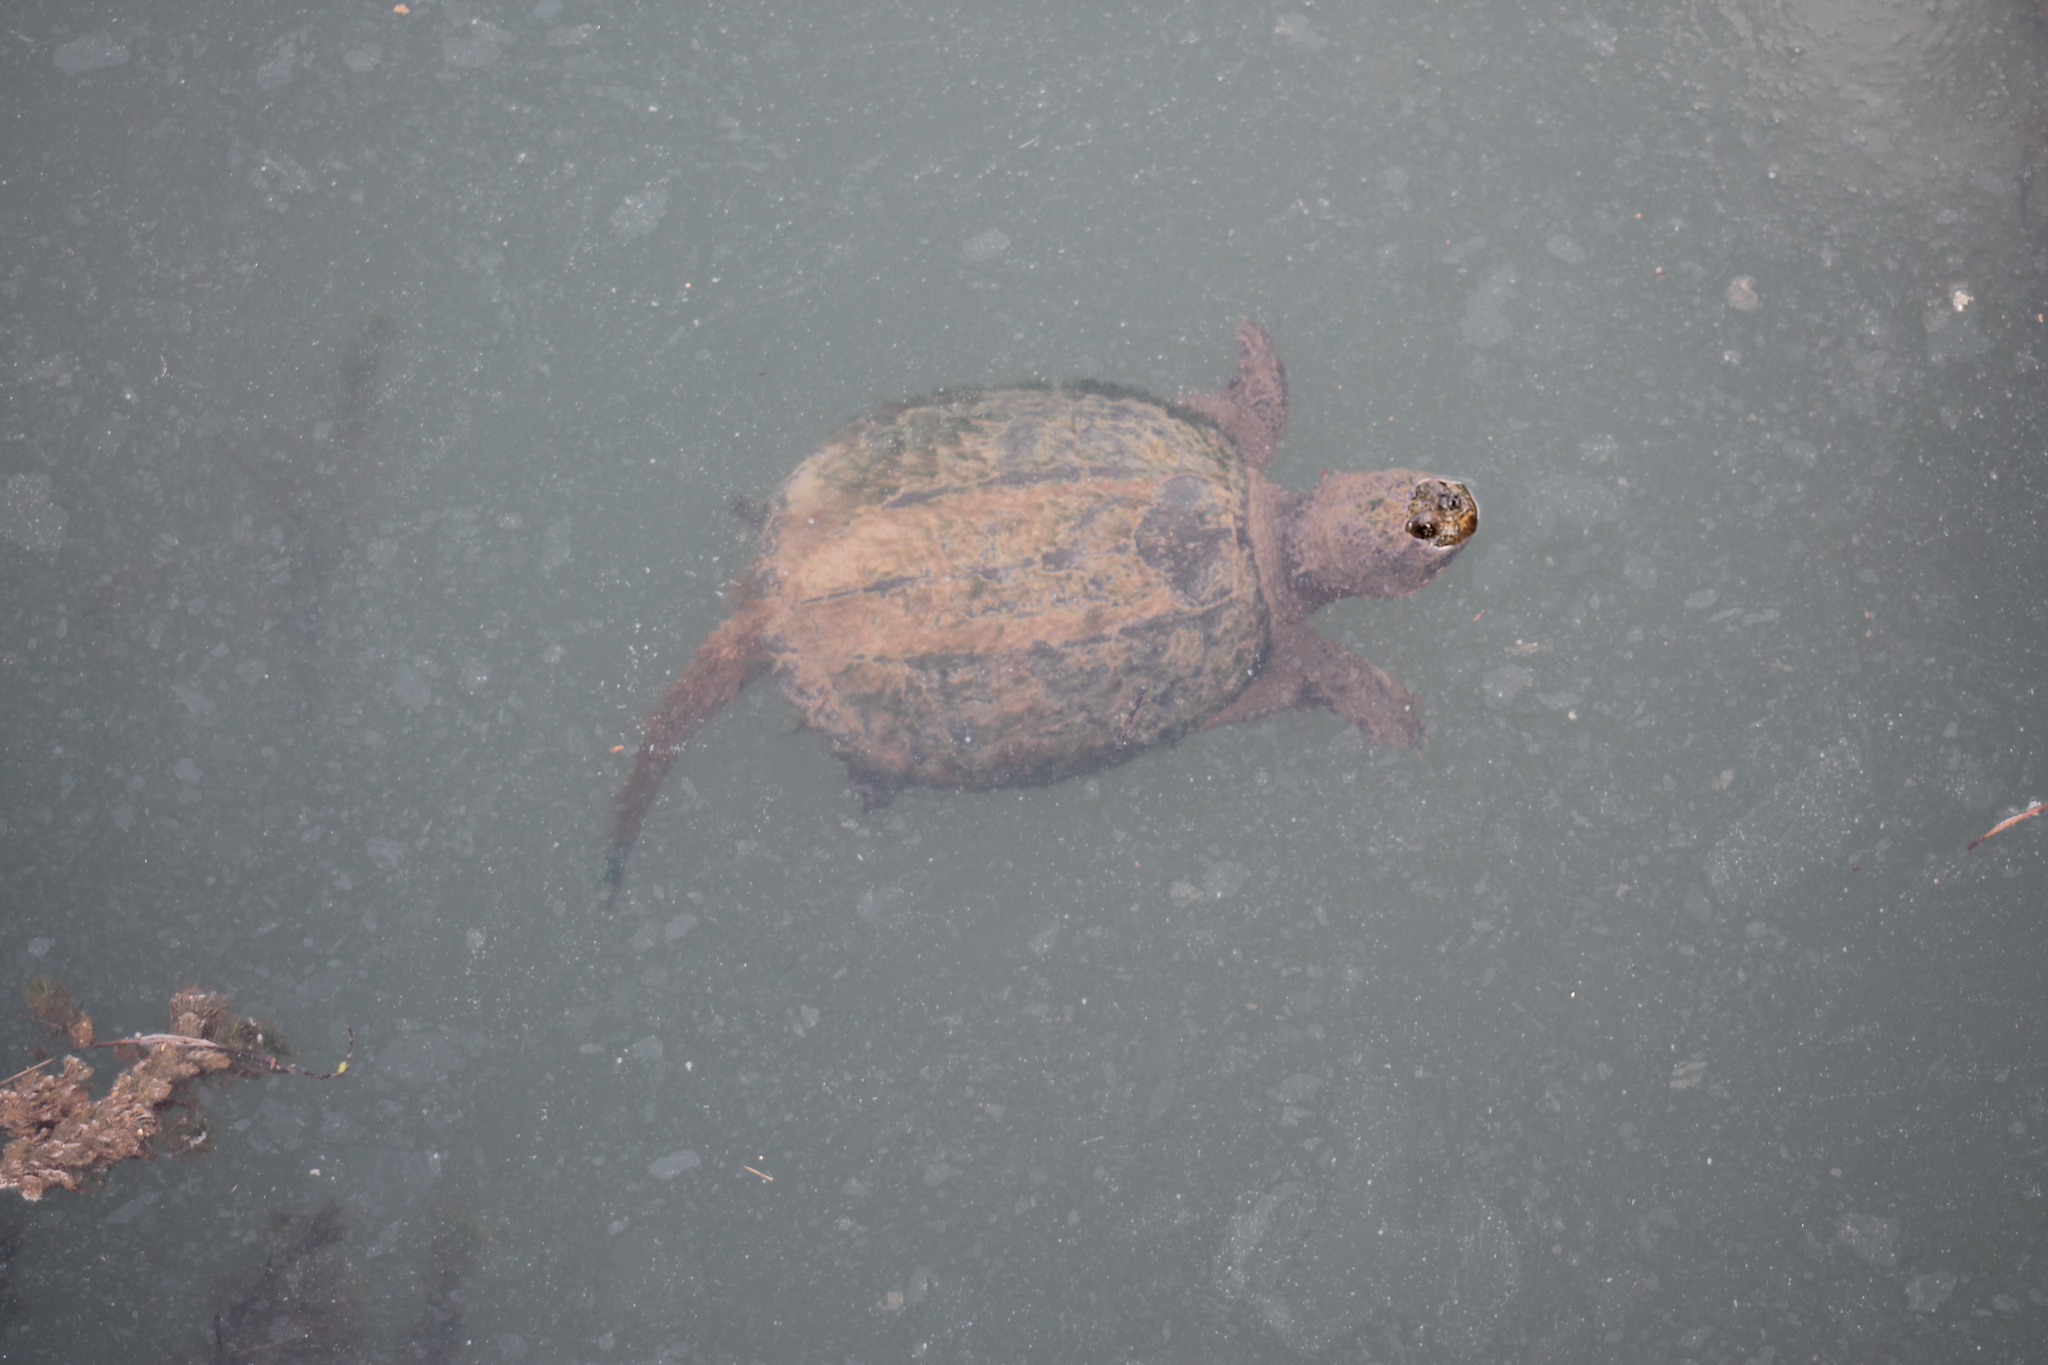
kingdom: Animalia
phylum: Chordata
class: Testudines
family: Chelydridae
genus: Chelydra
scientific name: Chelydra serpentina
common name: Common snapping turtle
